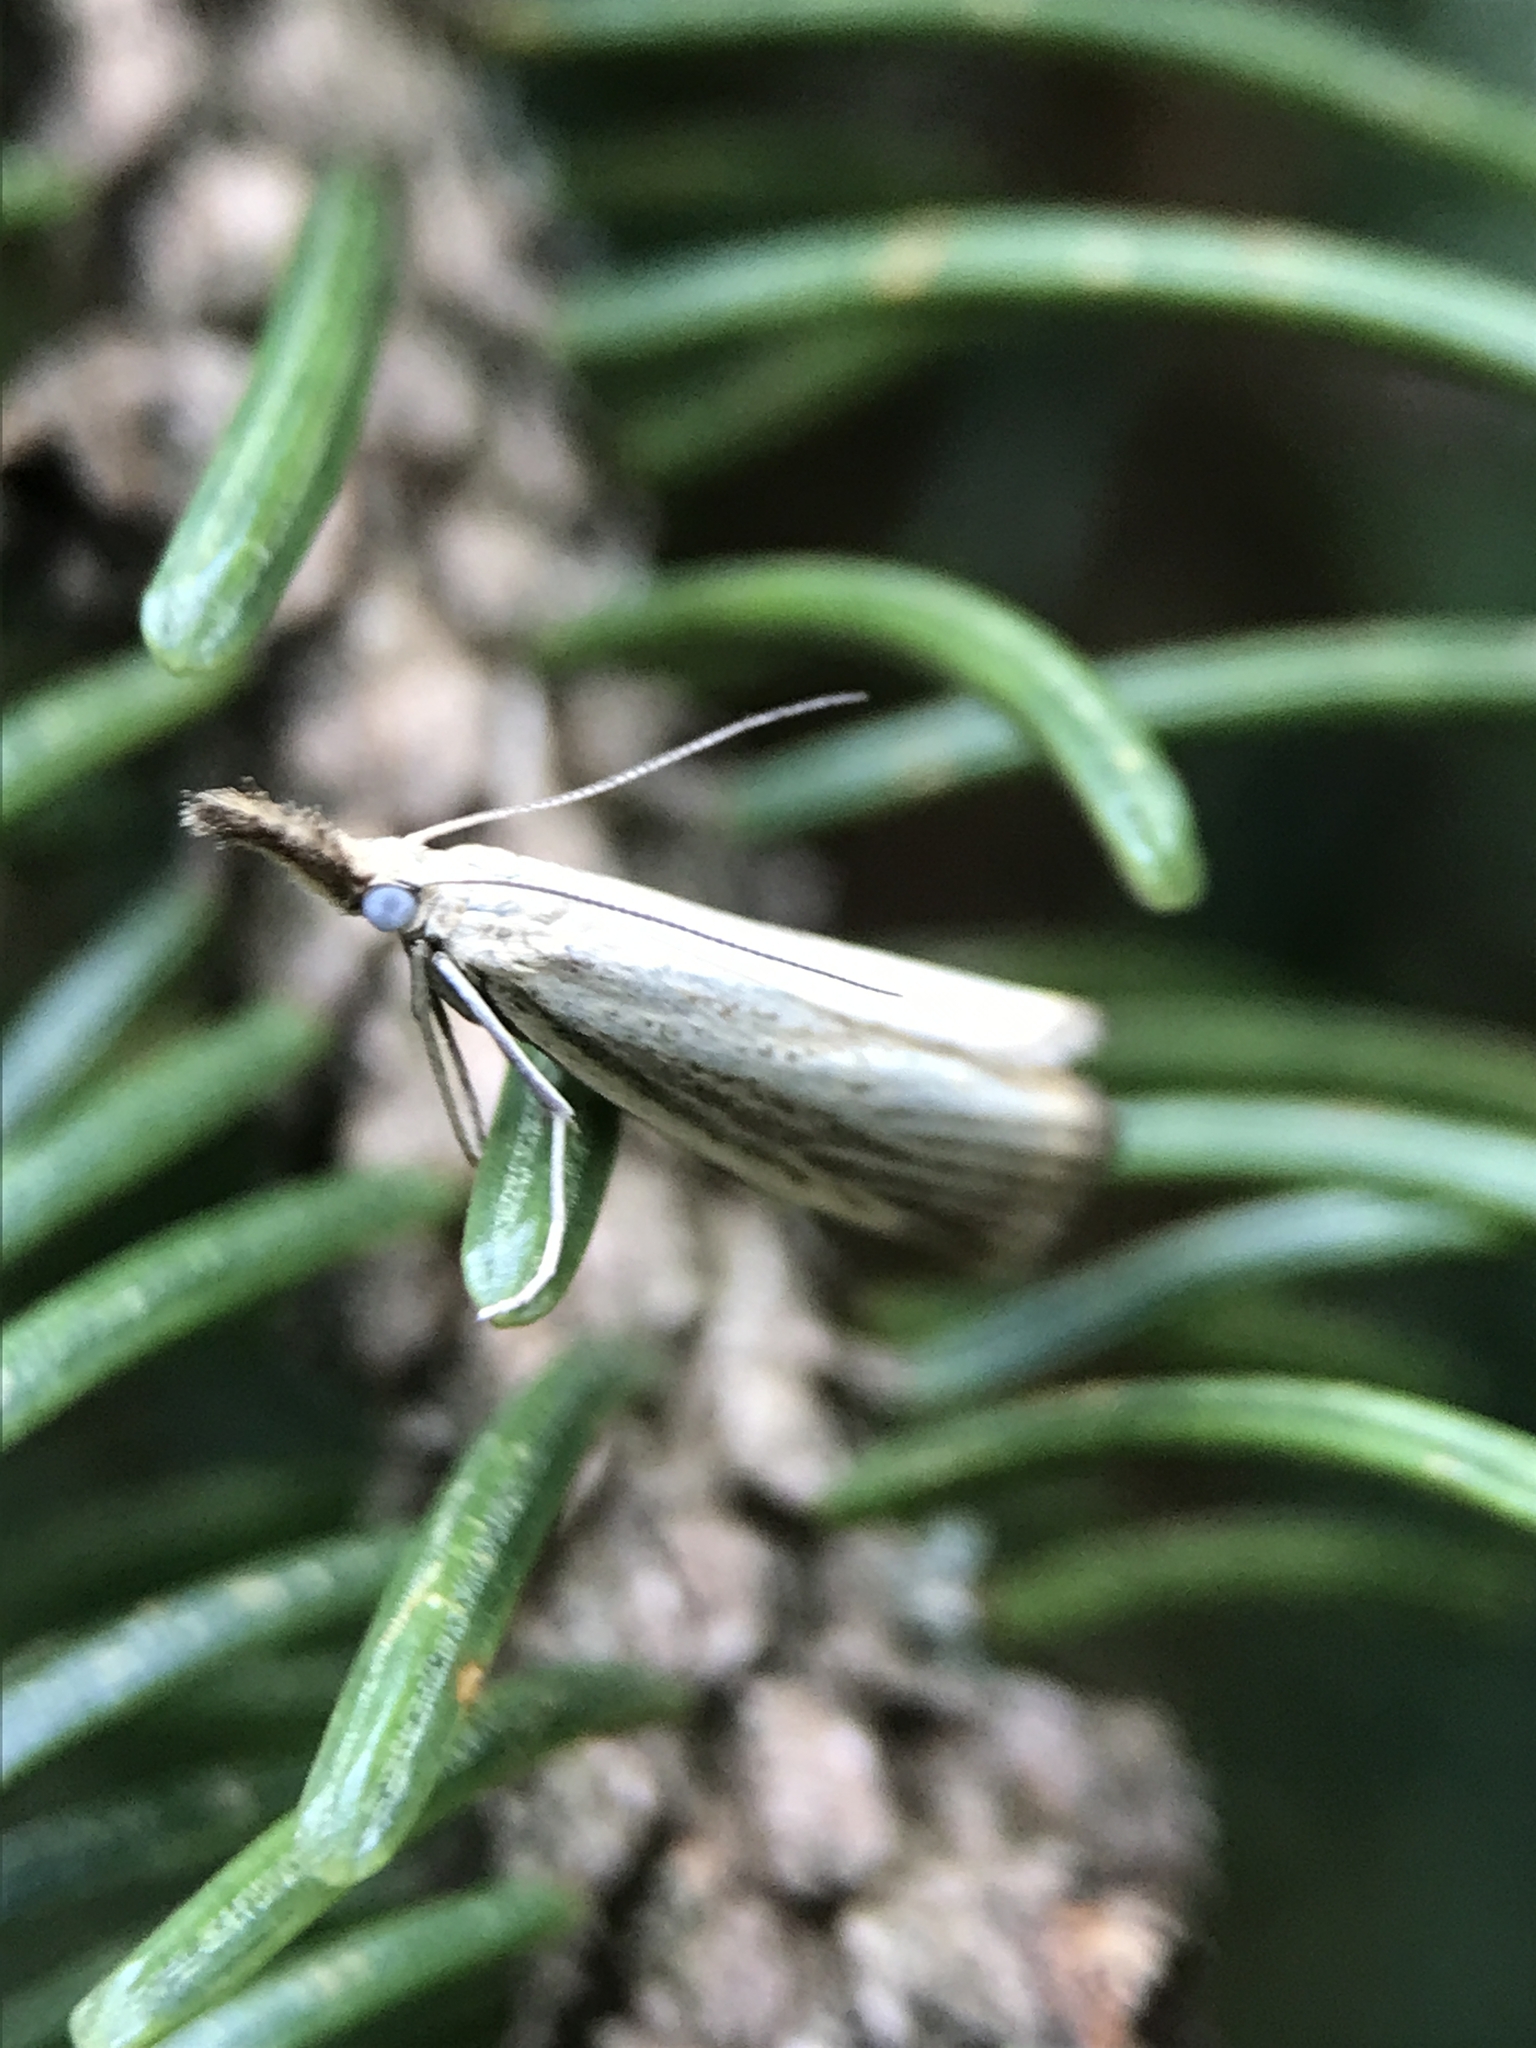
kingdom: Animalia
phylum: Arthropoda
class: Insecta
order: Lepidoptera
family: Crambidae
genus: Agriphila
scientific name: Agriphila straminella
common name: Straw grass-veneer
